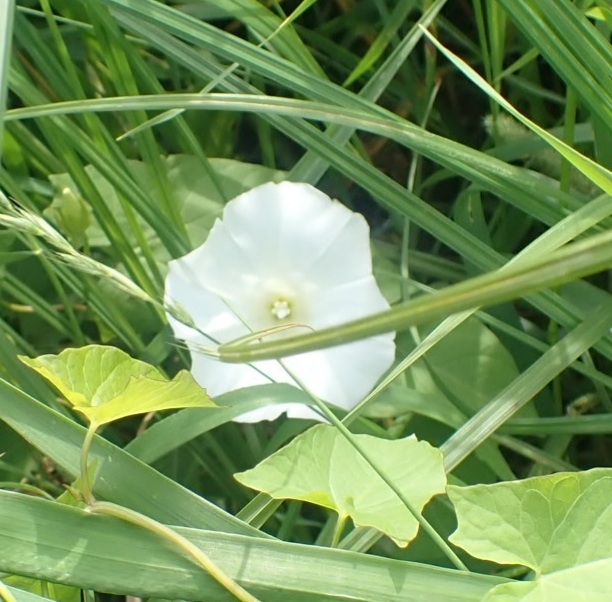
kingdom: Plantae
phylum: Tracheophyta
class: Magnoliopsida
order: Solanales
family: Convolvulaceae
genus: Calystegia
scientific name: Calystegia sepium
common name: Hedge bindweed
